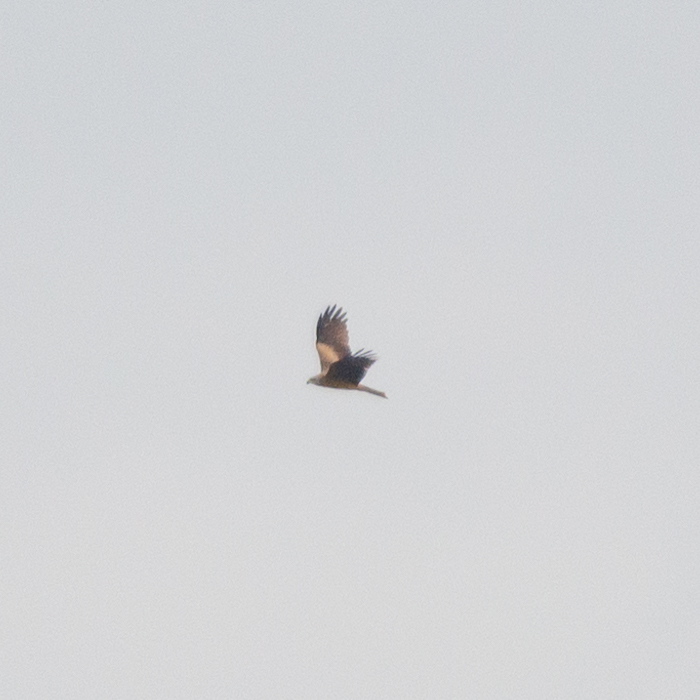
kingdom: Animalia
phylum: Chordata
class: Aves
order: Accipitriformes
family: Accipitridae
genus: Milvus
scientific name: Milvus migrans
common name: Black kite
